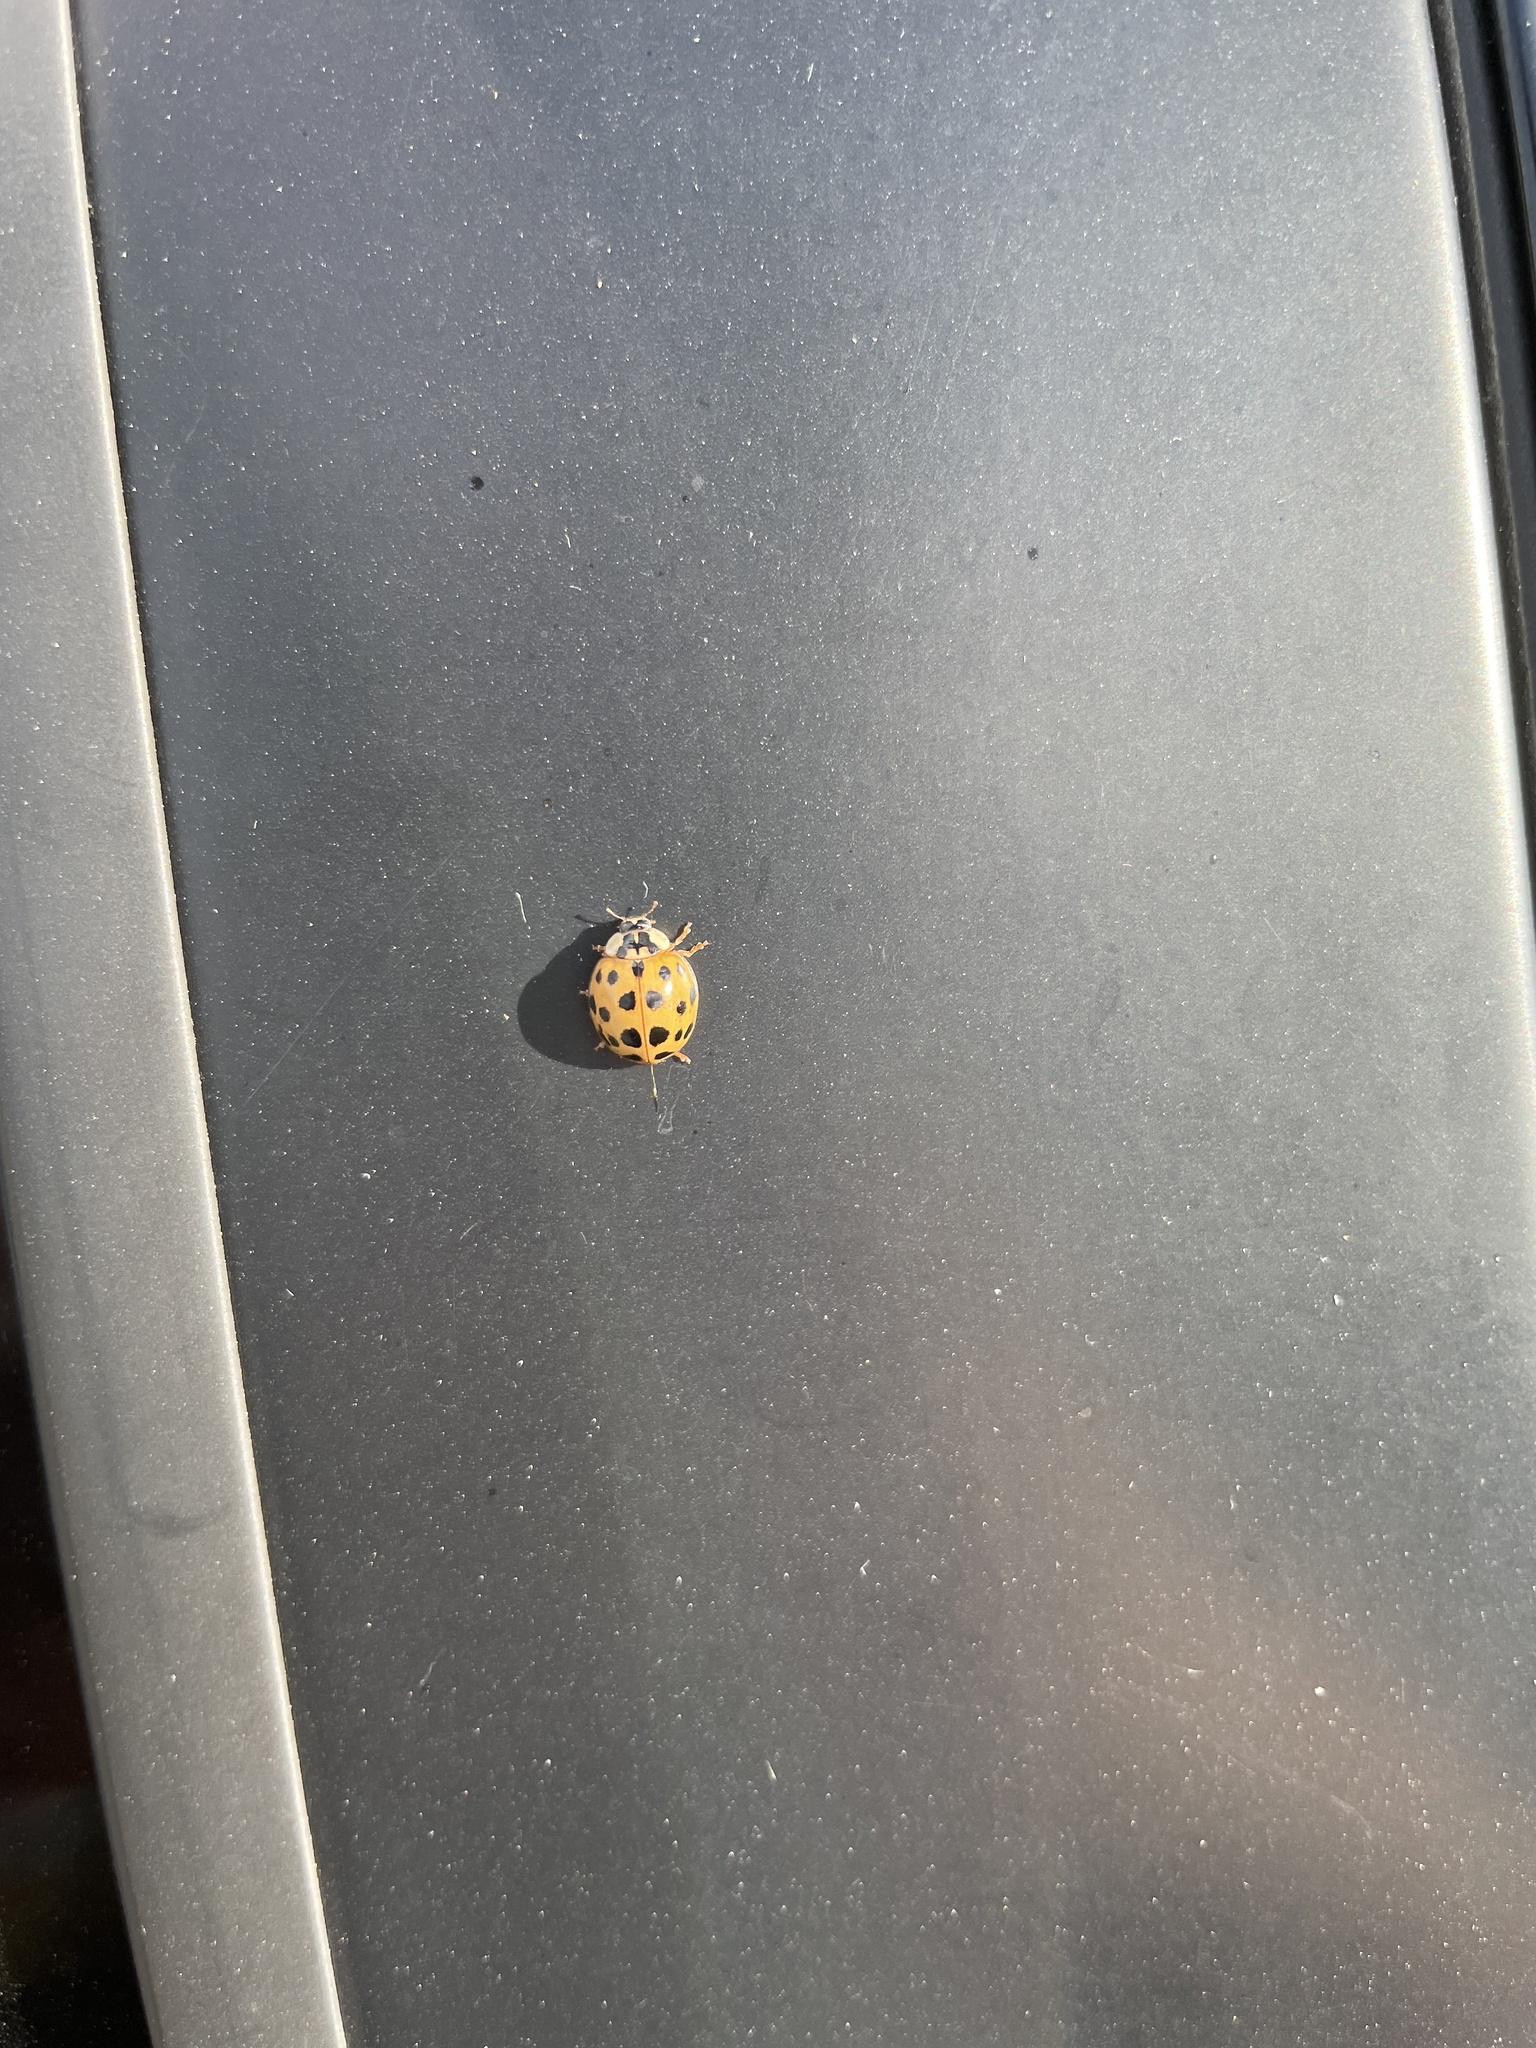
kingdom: Animalia
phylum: Arthropoda
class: Insecta
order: Coleoptera
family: Coccinellidae
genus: Harmonia
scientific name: Harmonia axyridis
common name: Harlequin ladybird
